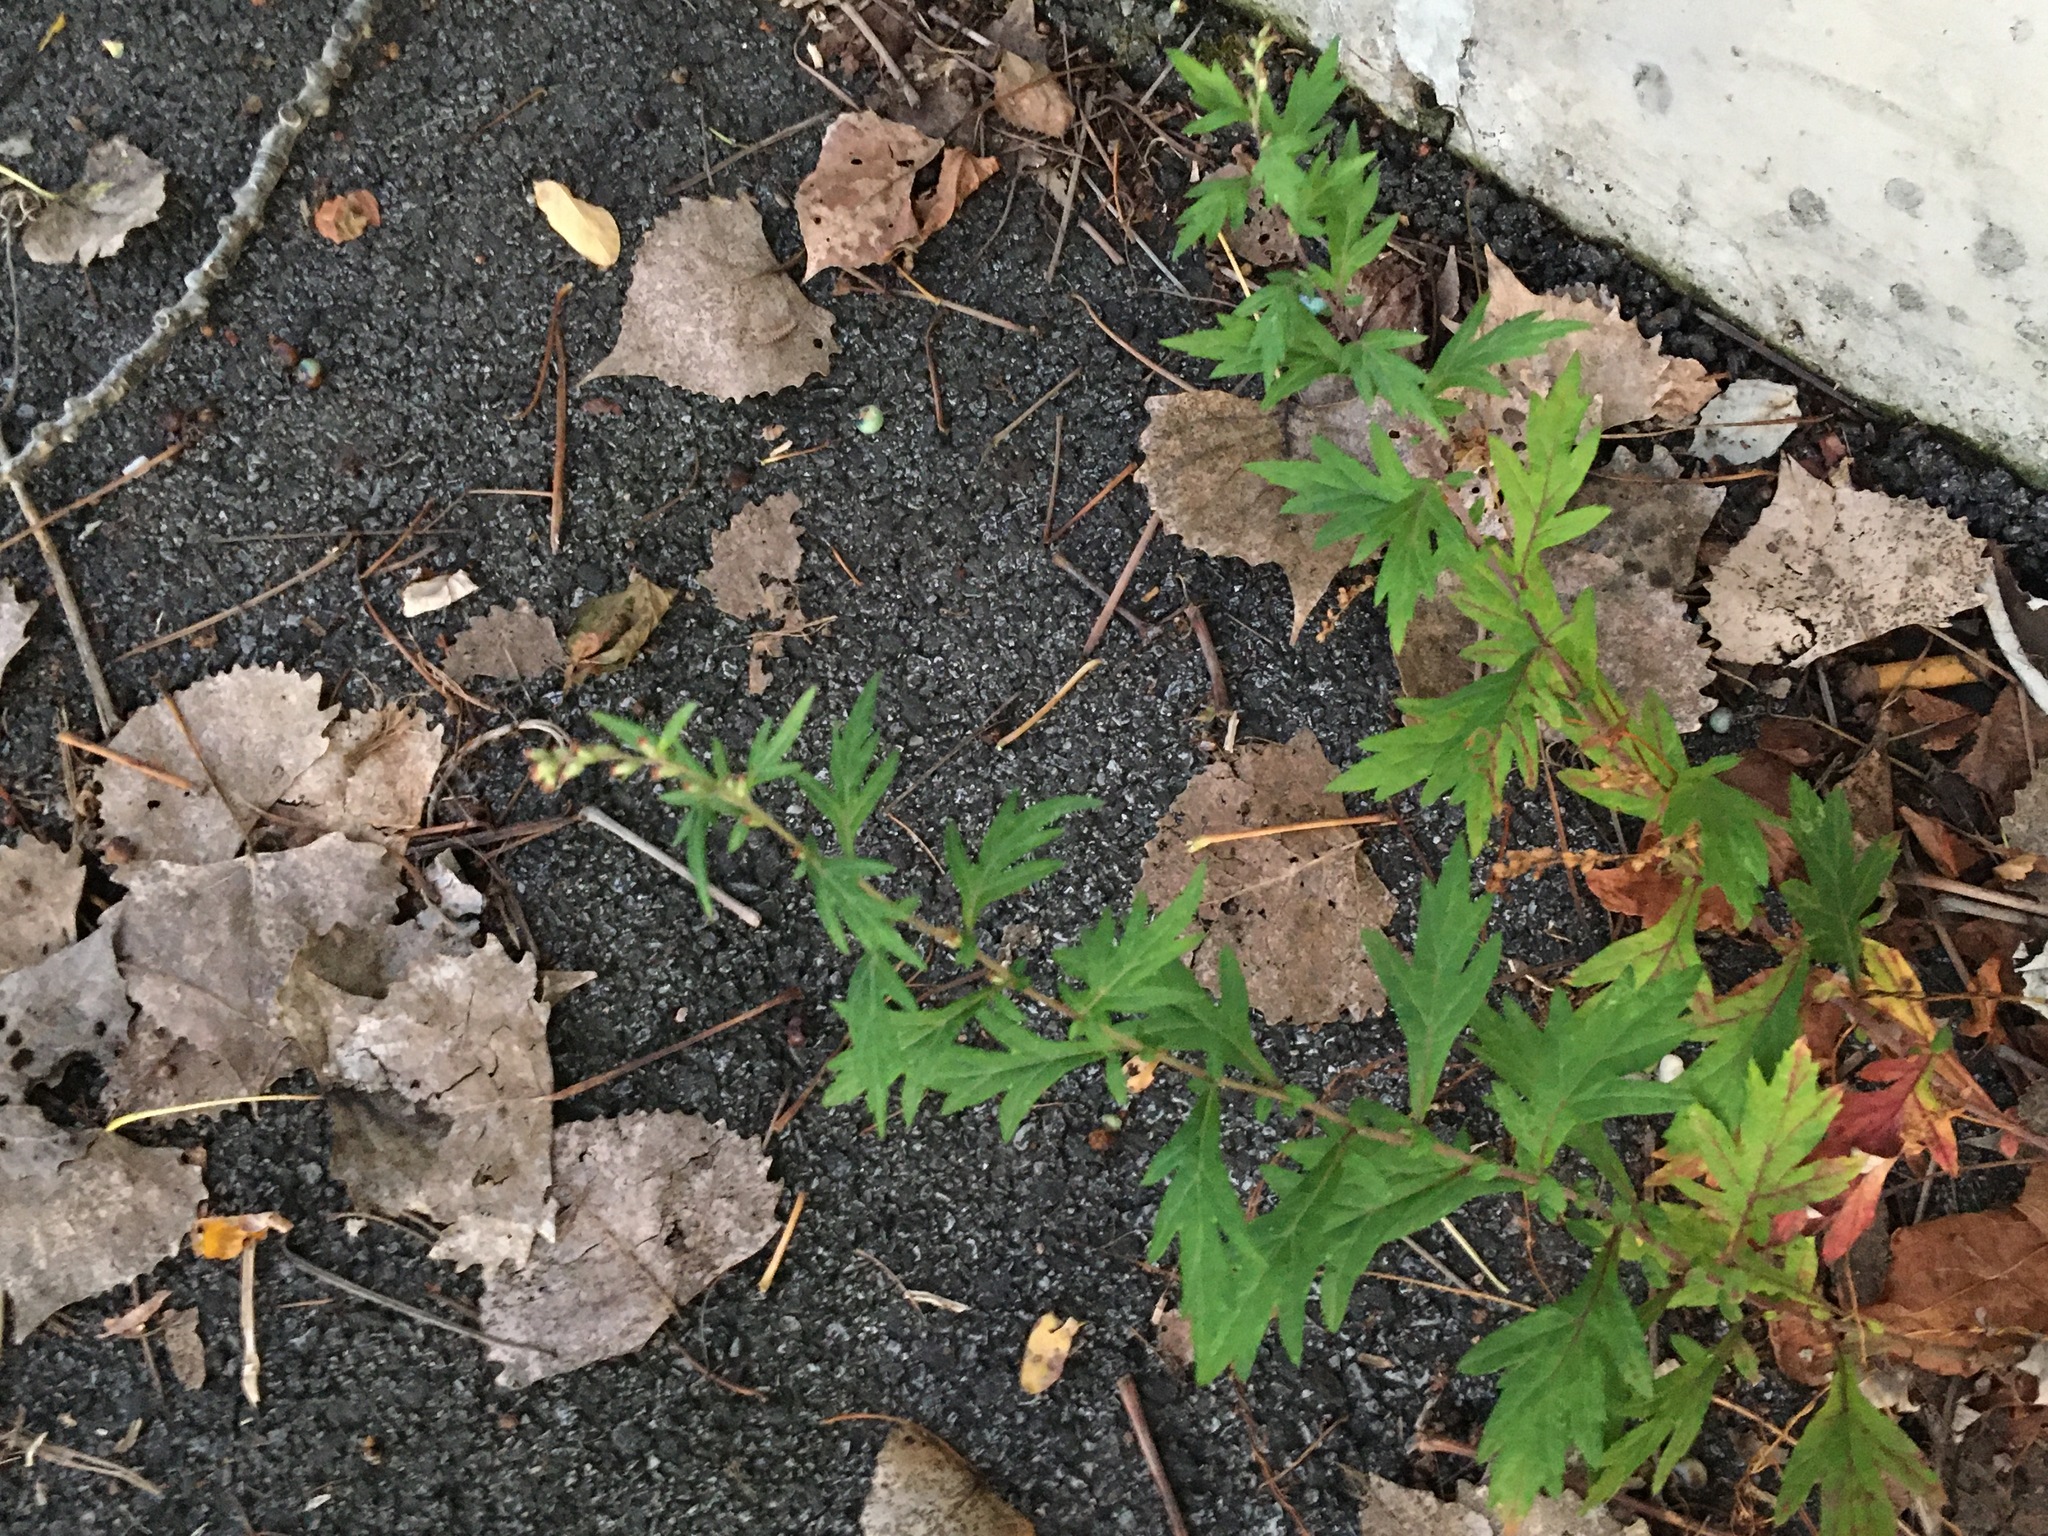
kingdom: Plantae
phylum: Tracheophyta
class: Magnoliopsida
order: Asterales
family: Asteraceae
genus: Artemisia
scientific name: Artemisia vulgaris
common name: Mugwort
